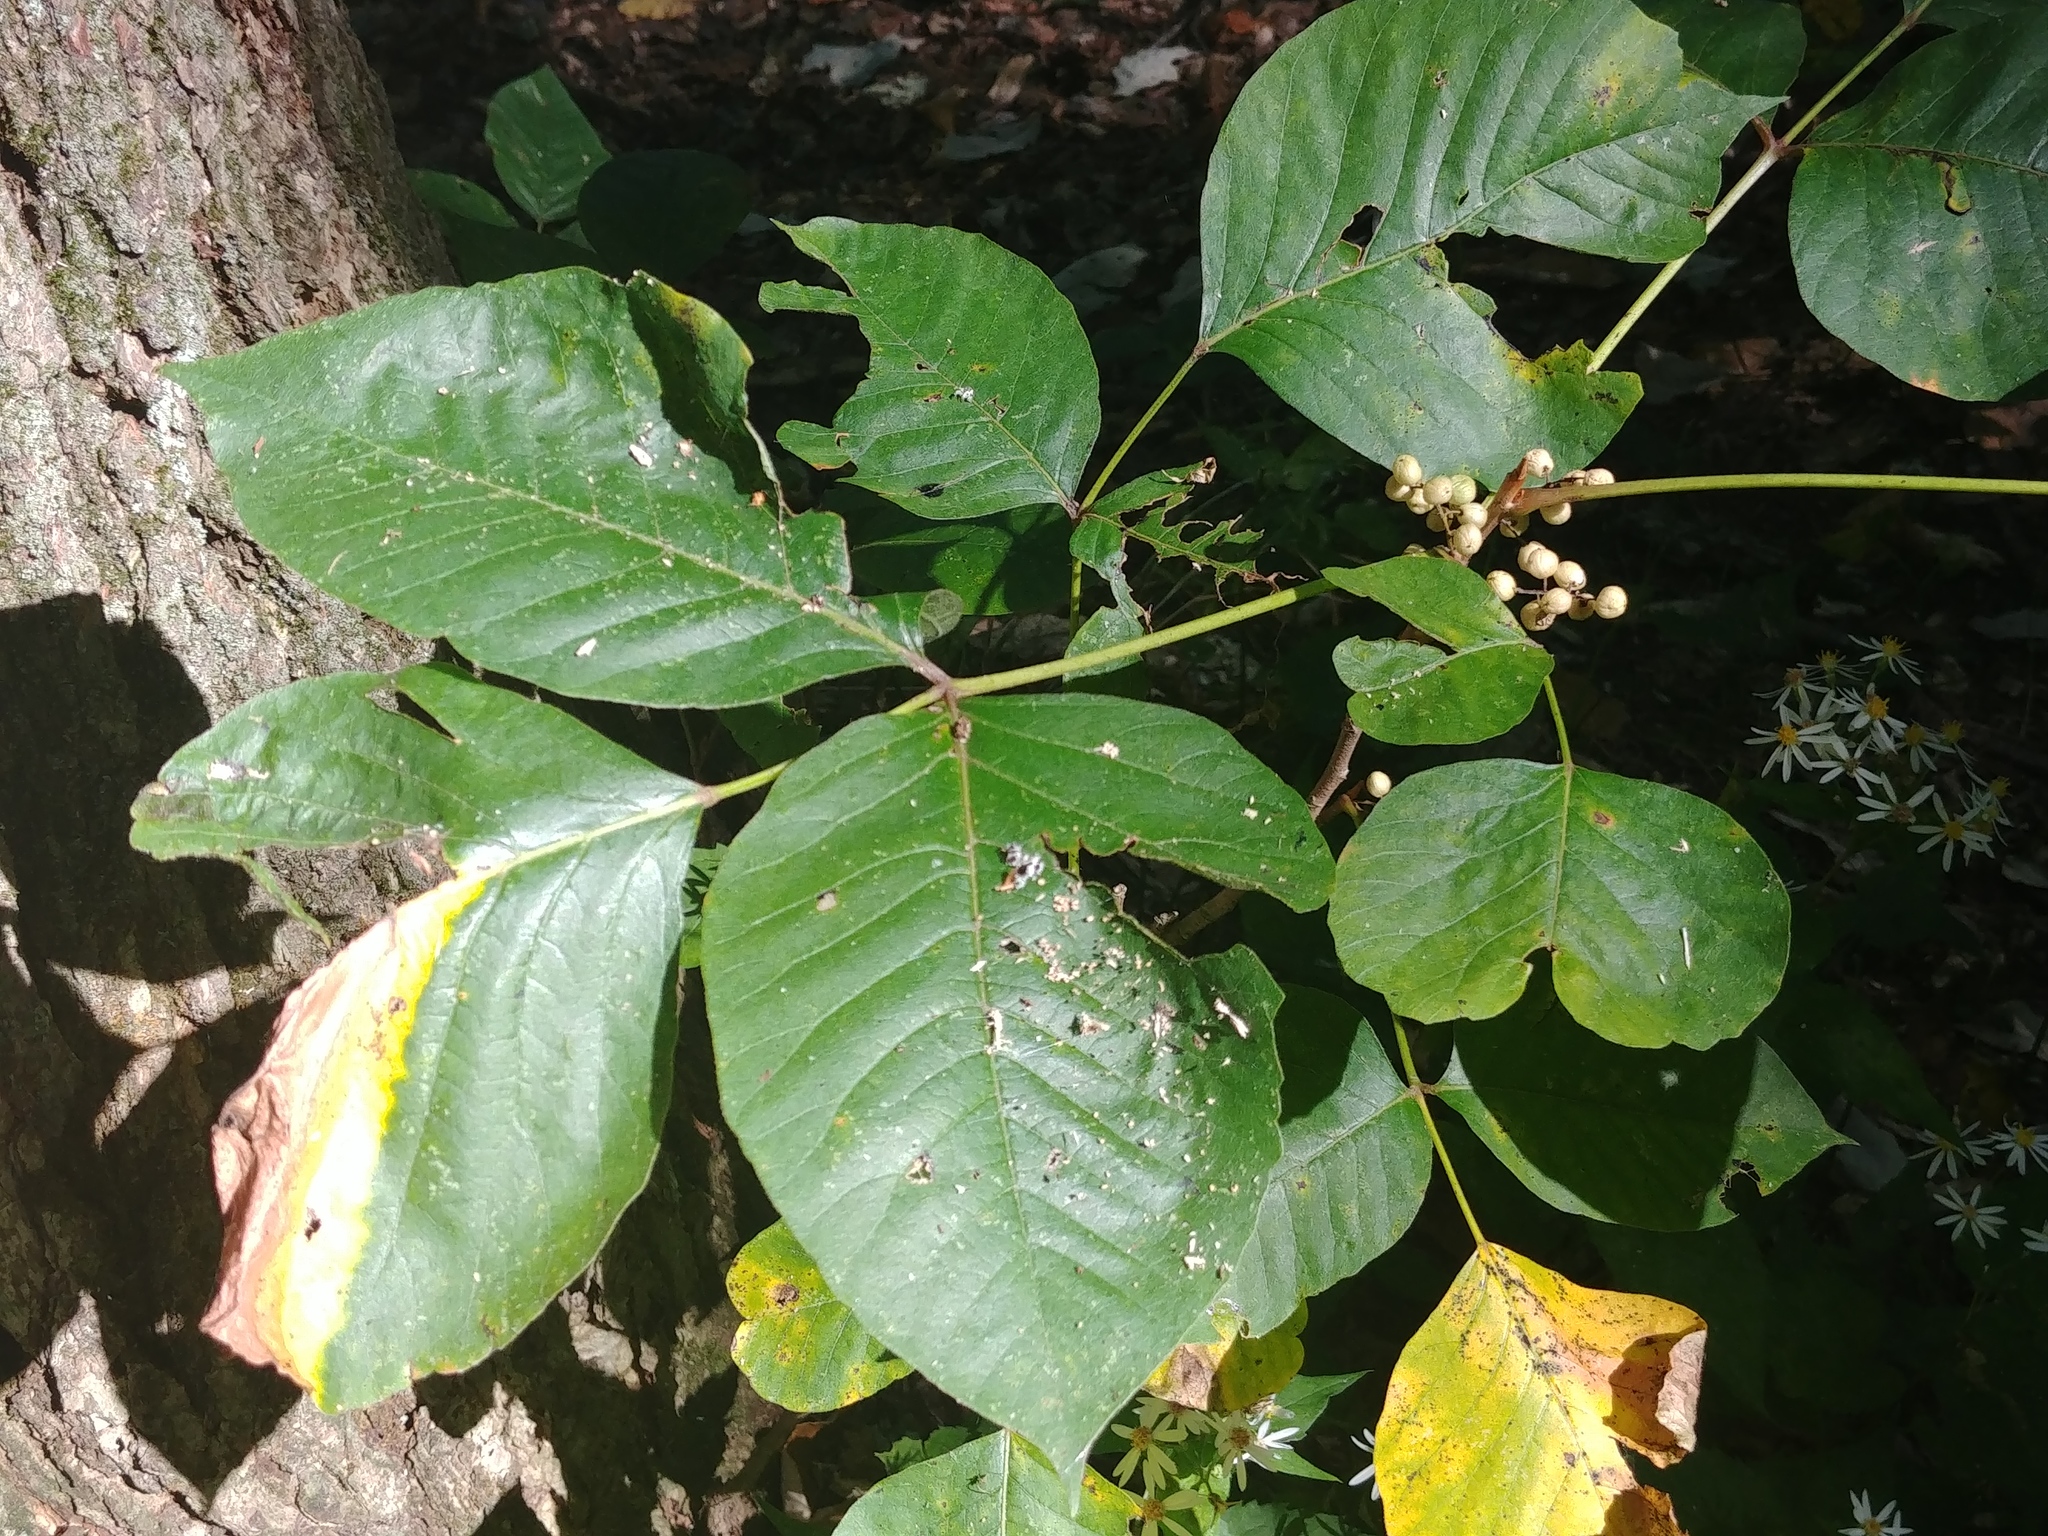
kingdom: Plantae
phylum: Tracheophyta
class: Magnoliopsida
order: Sapindales
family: Anacardiaceae
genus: Toxicodendron
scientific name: Toxicodendron radicans
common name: Poison ivy
